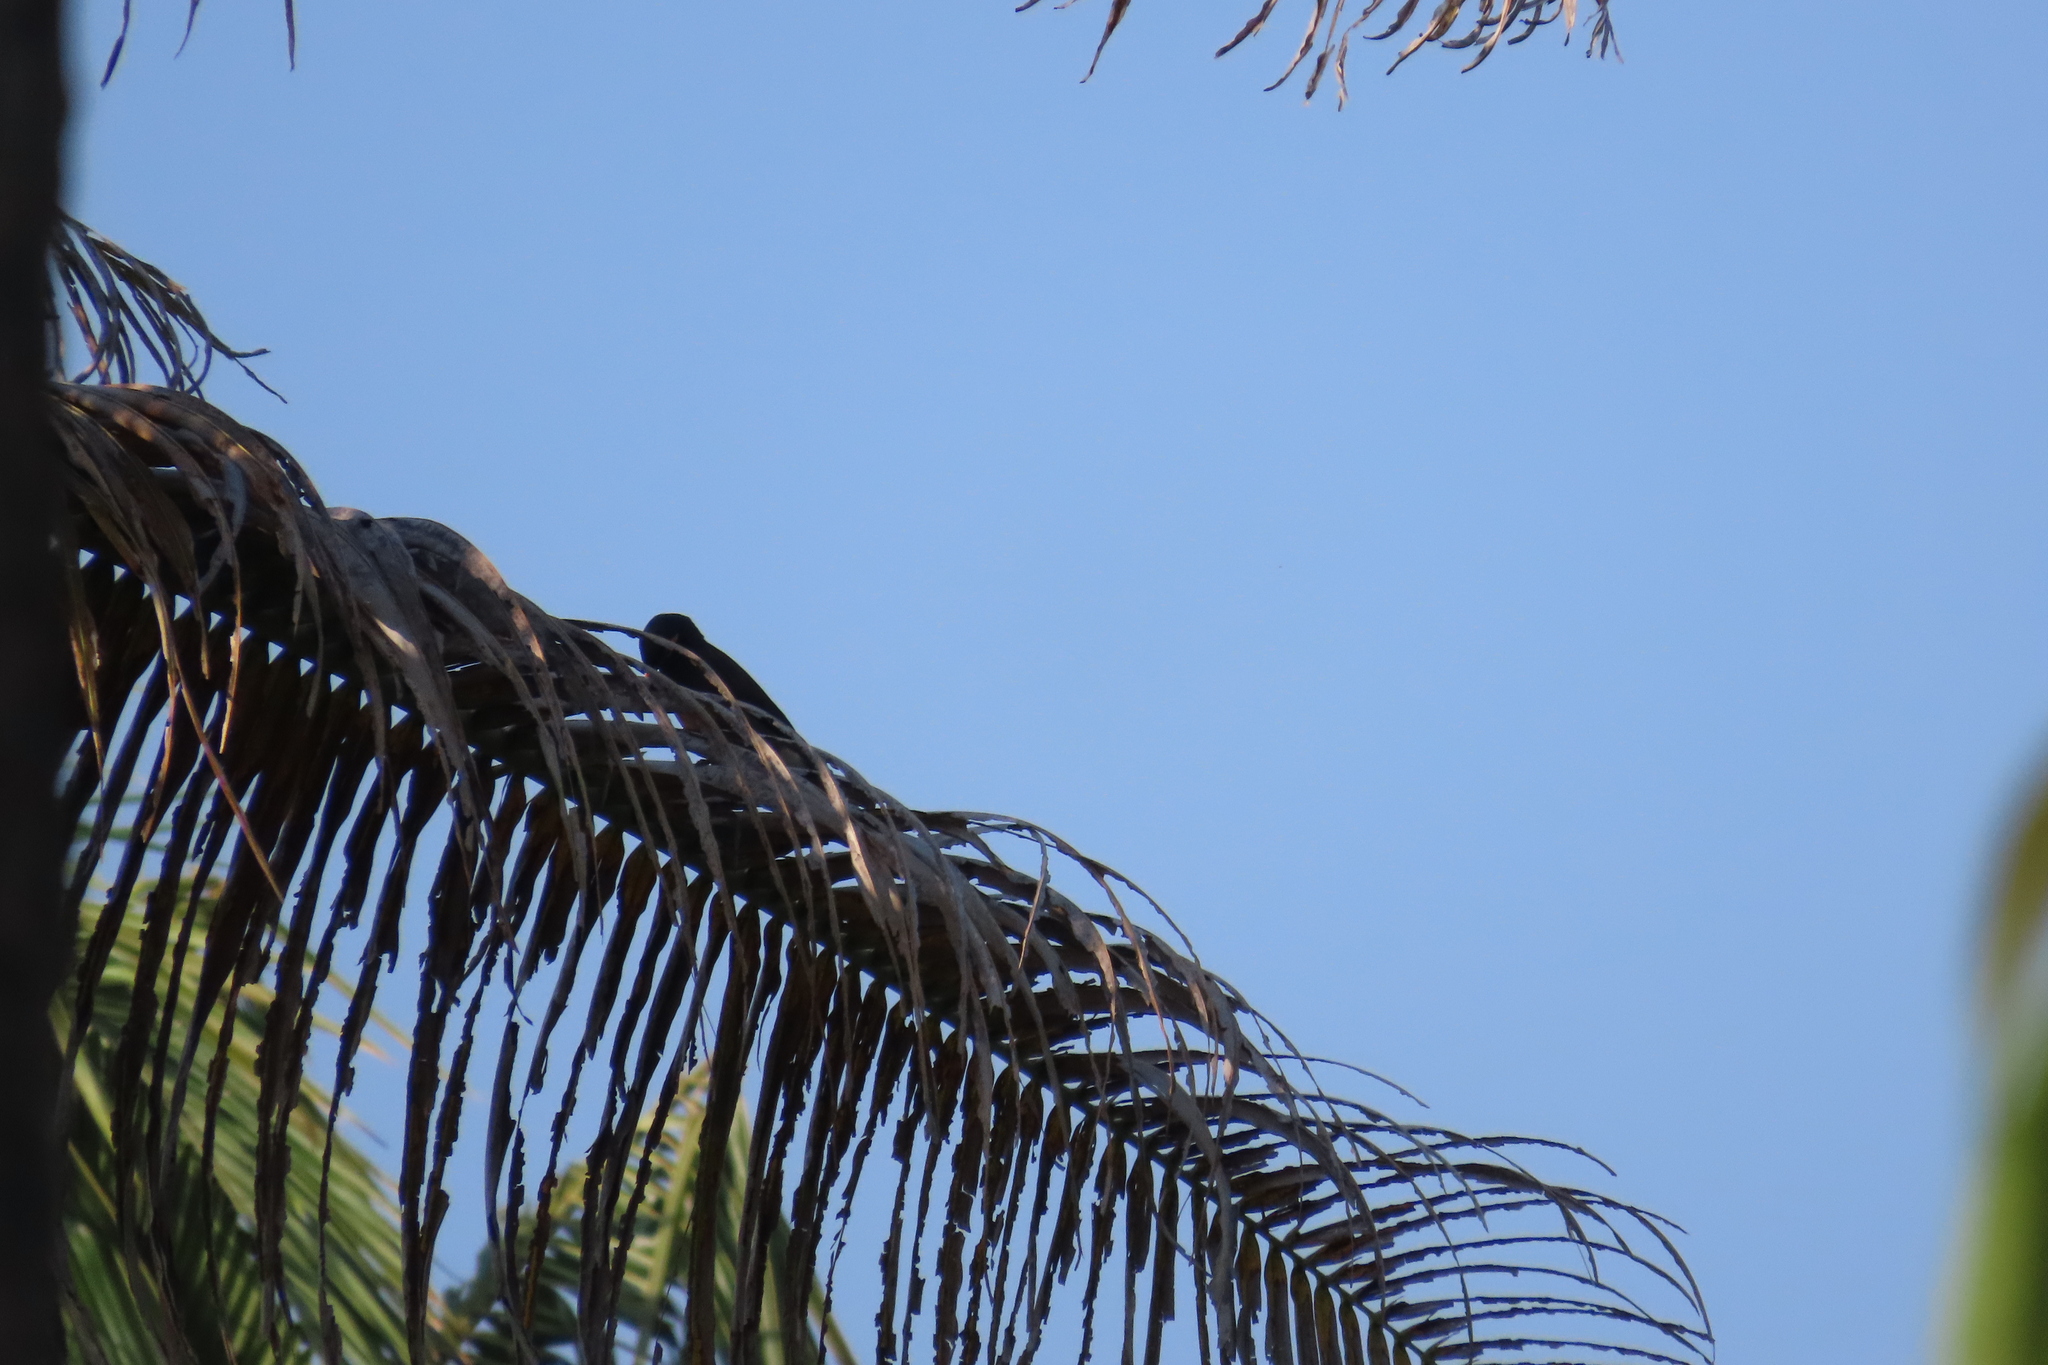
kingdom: Animalia
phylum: Chordata
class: Aves
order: Passeriformes
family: Sturnidae
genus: Acridotheres
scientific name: Acridotheres tristis
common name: Common myna
